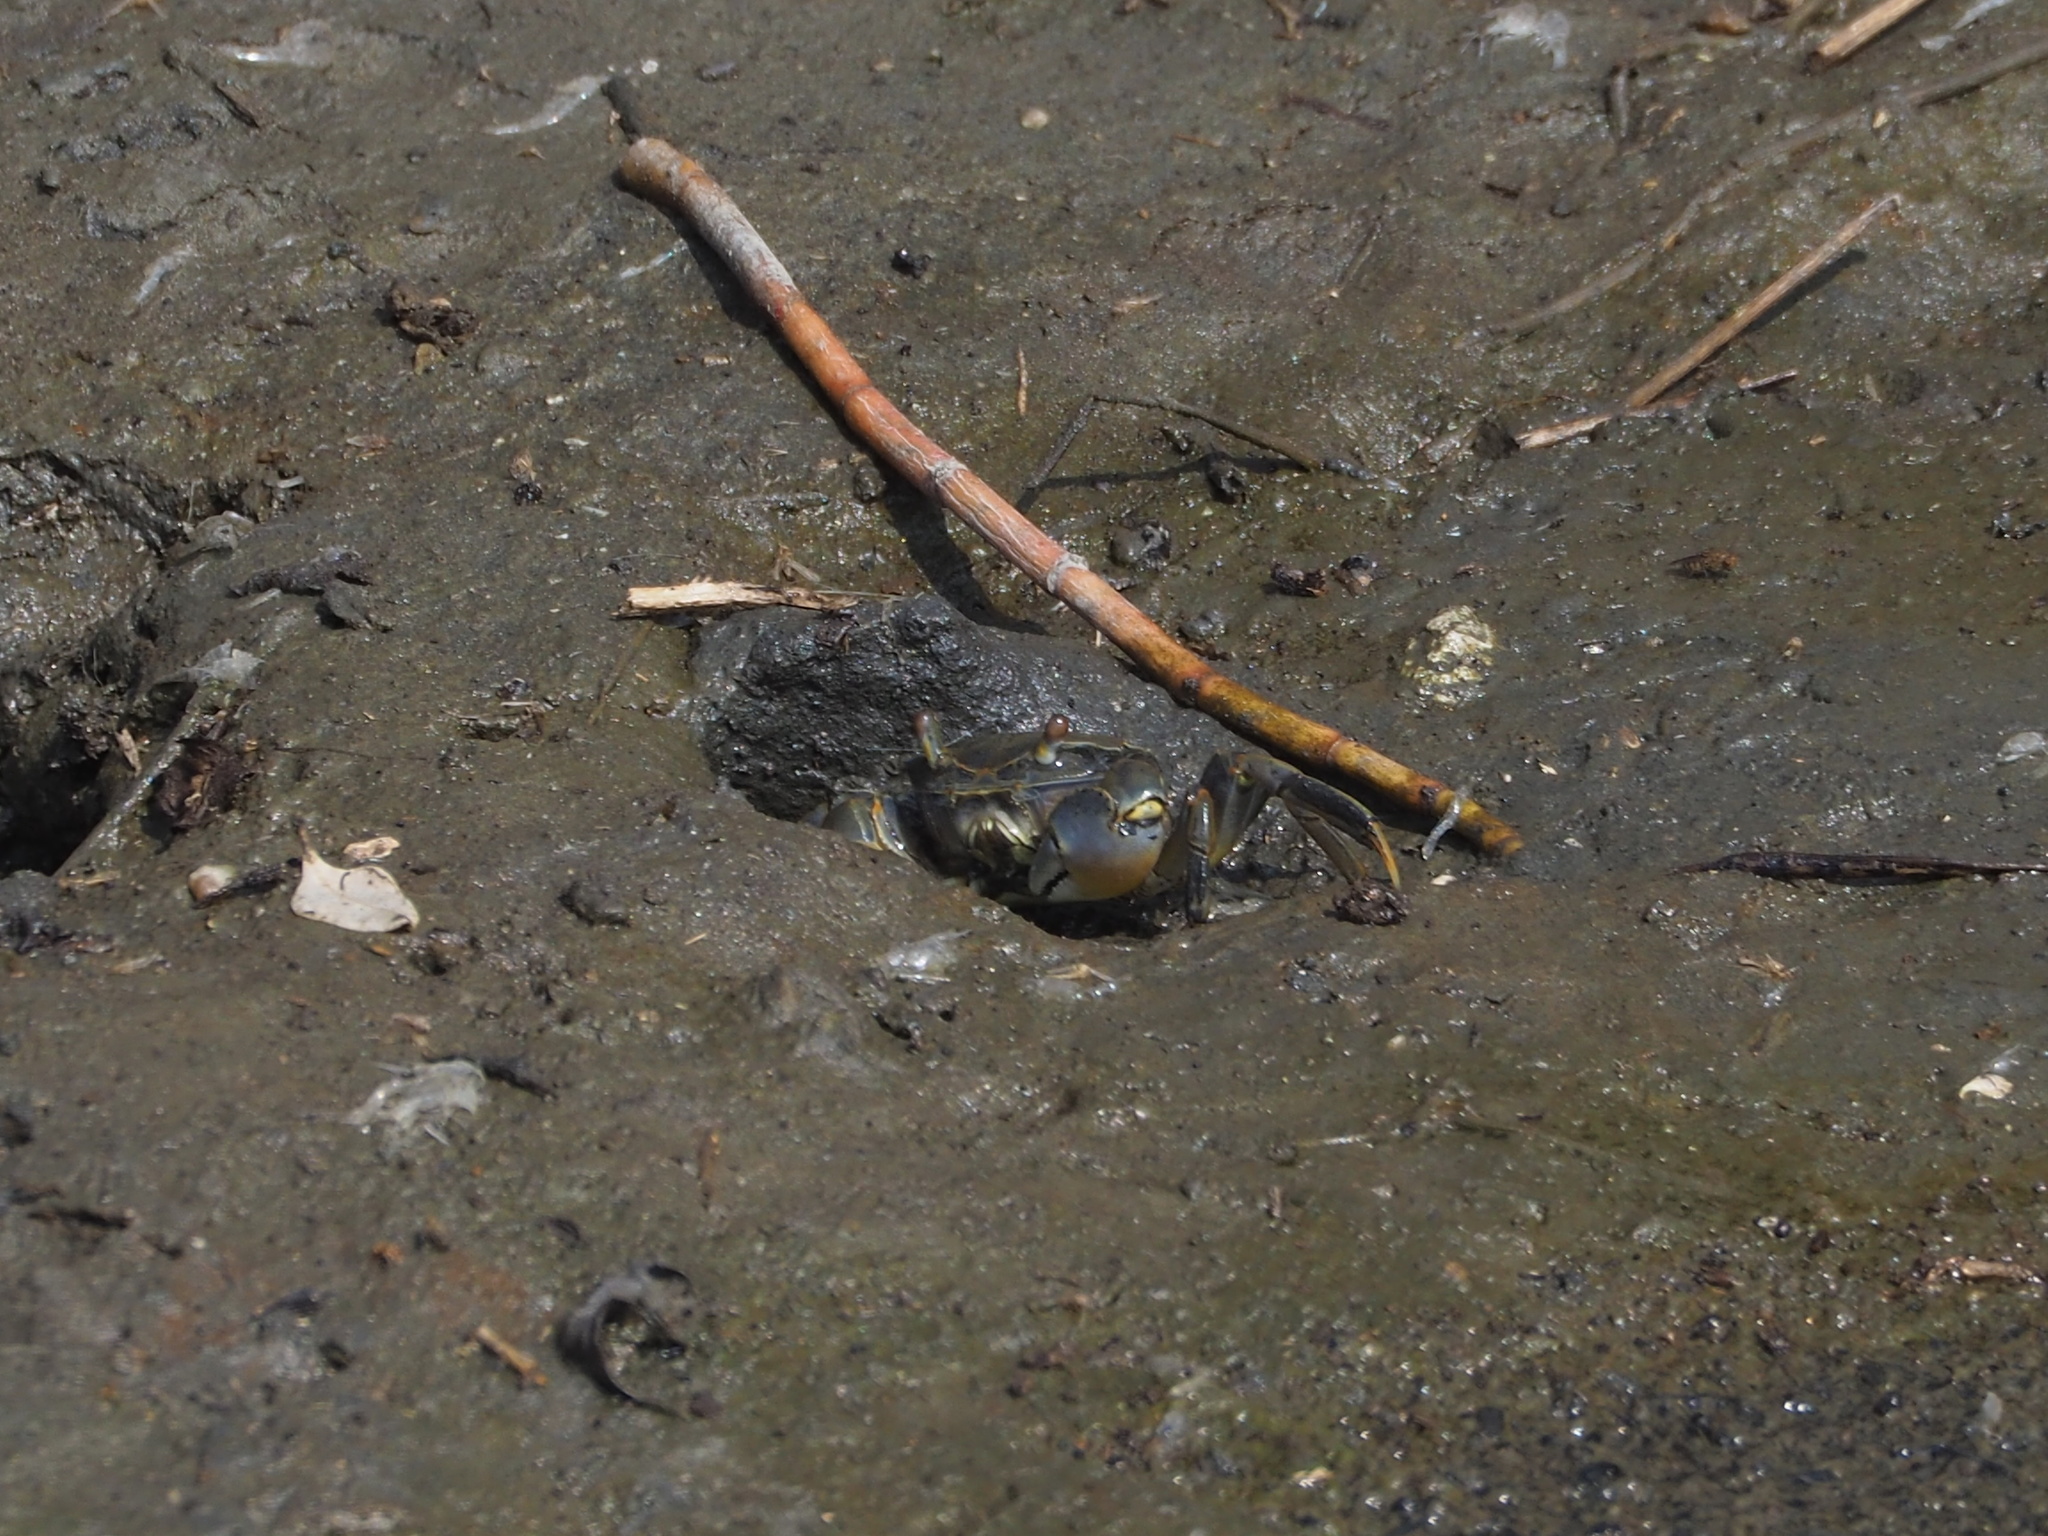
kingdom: Animalia
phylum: Arthropoda
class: Malacostraca
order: Decapoda
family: Varunidae
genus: Helice
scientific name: Helice formosensis
